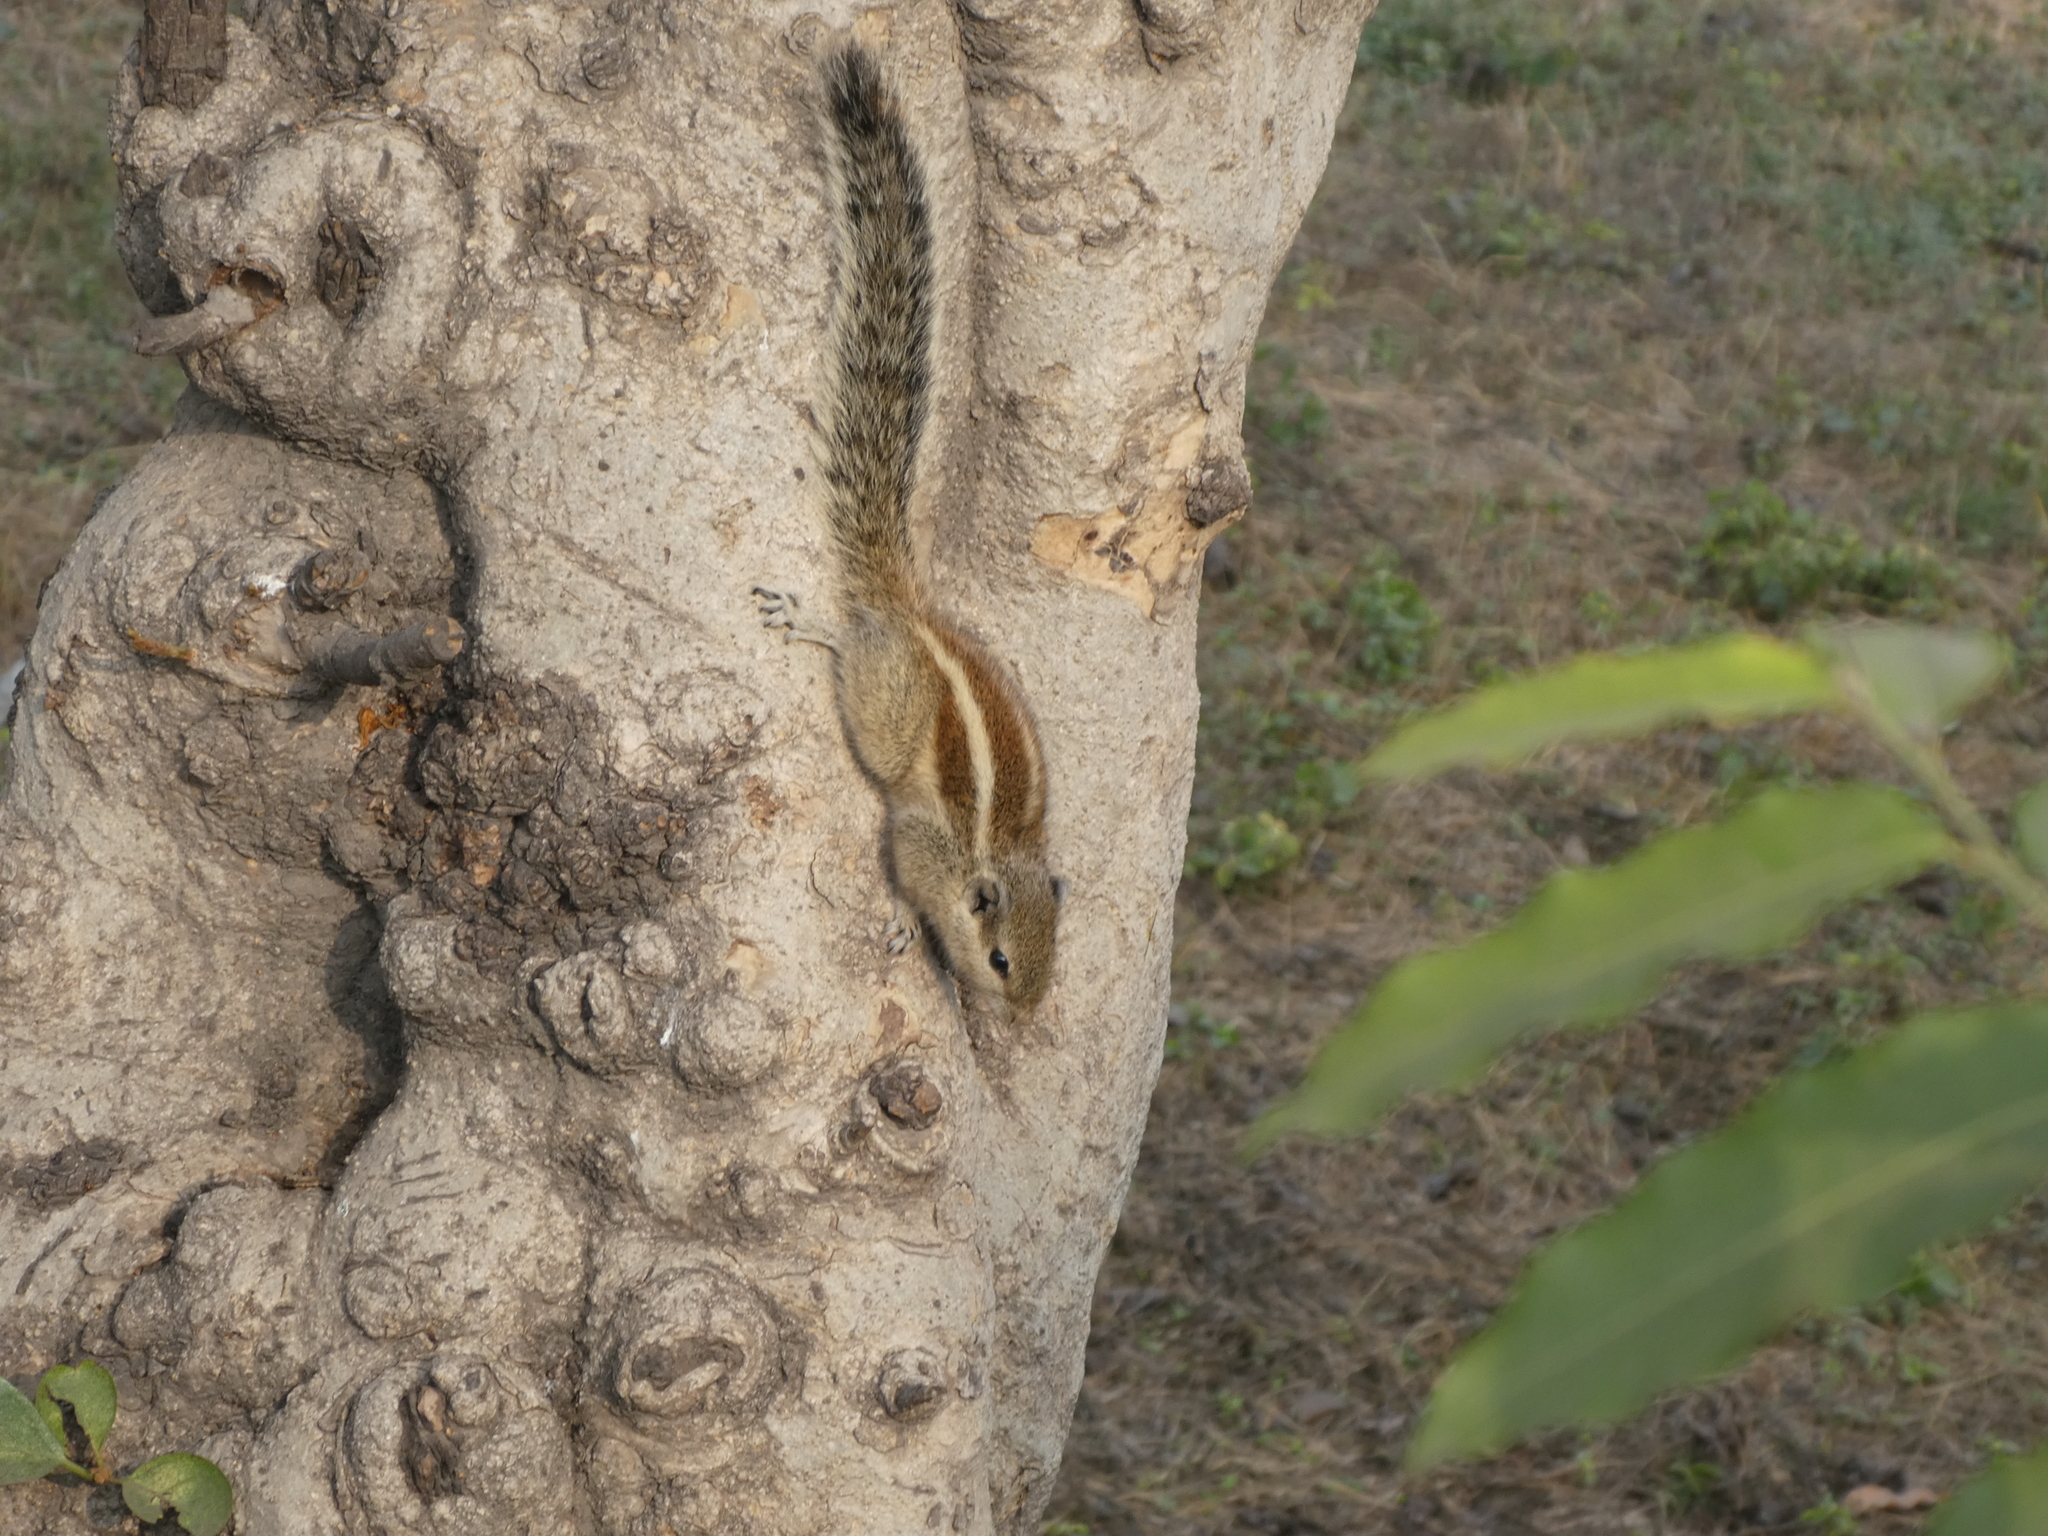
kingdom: Animalia
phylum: Chordata
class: Mammalia
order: Rodentia
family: Sciuridae
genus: Funambulus
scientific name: Funambulus pennantii
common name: Northern palm squirrel
